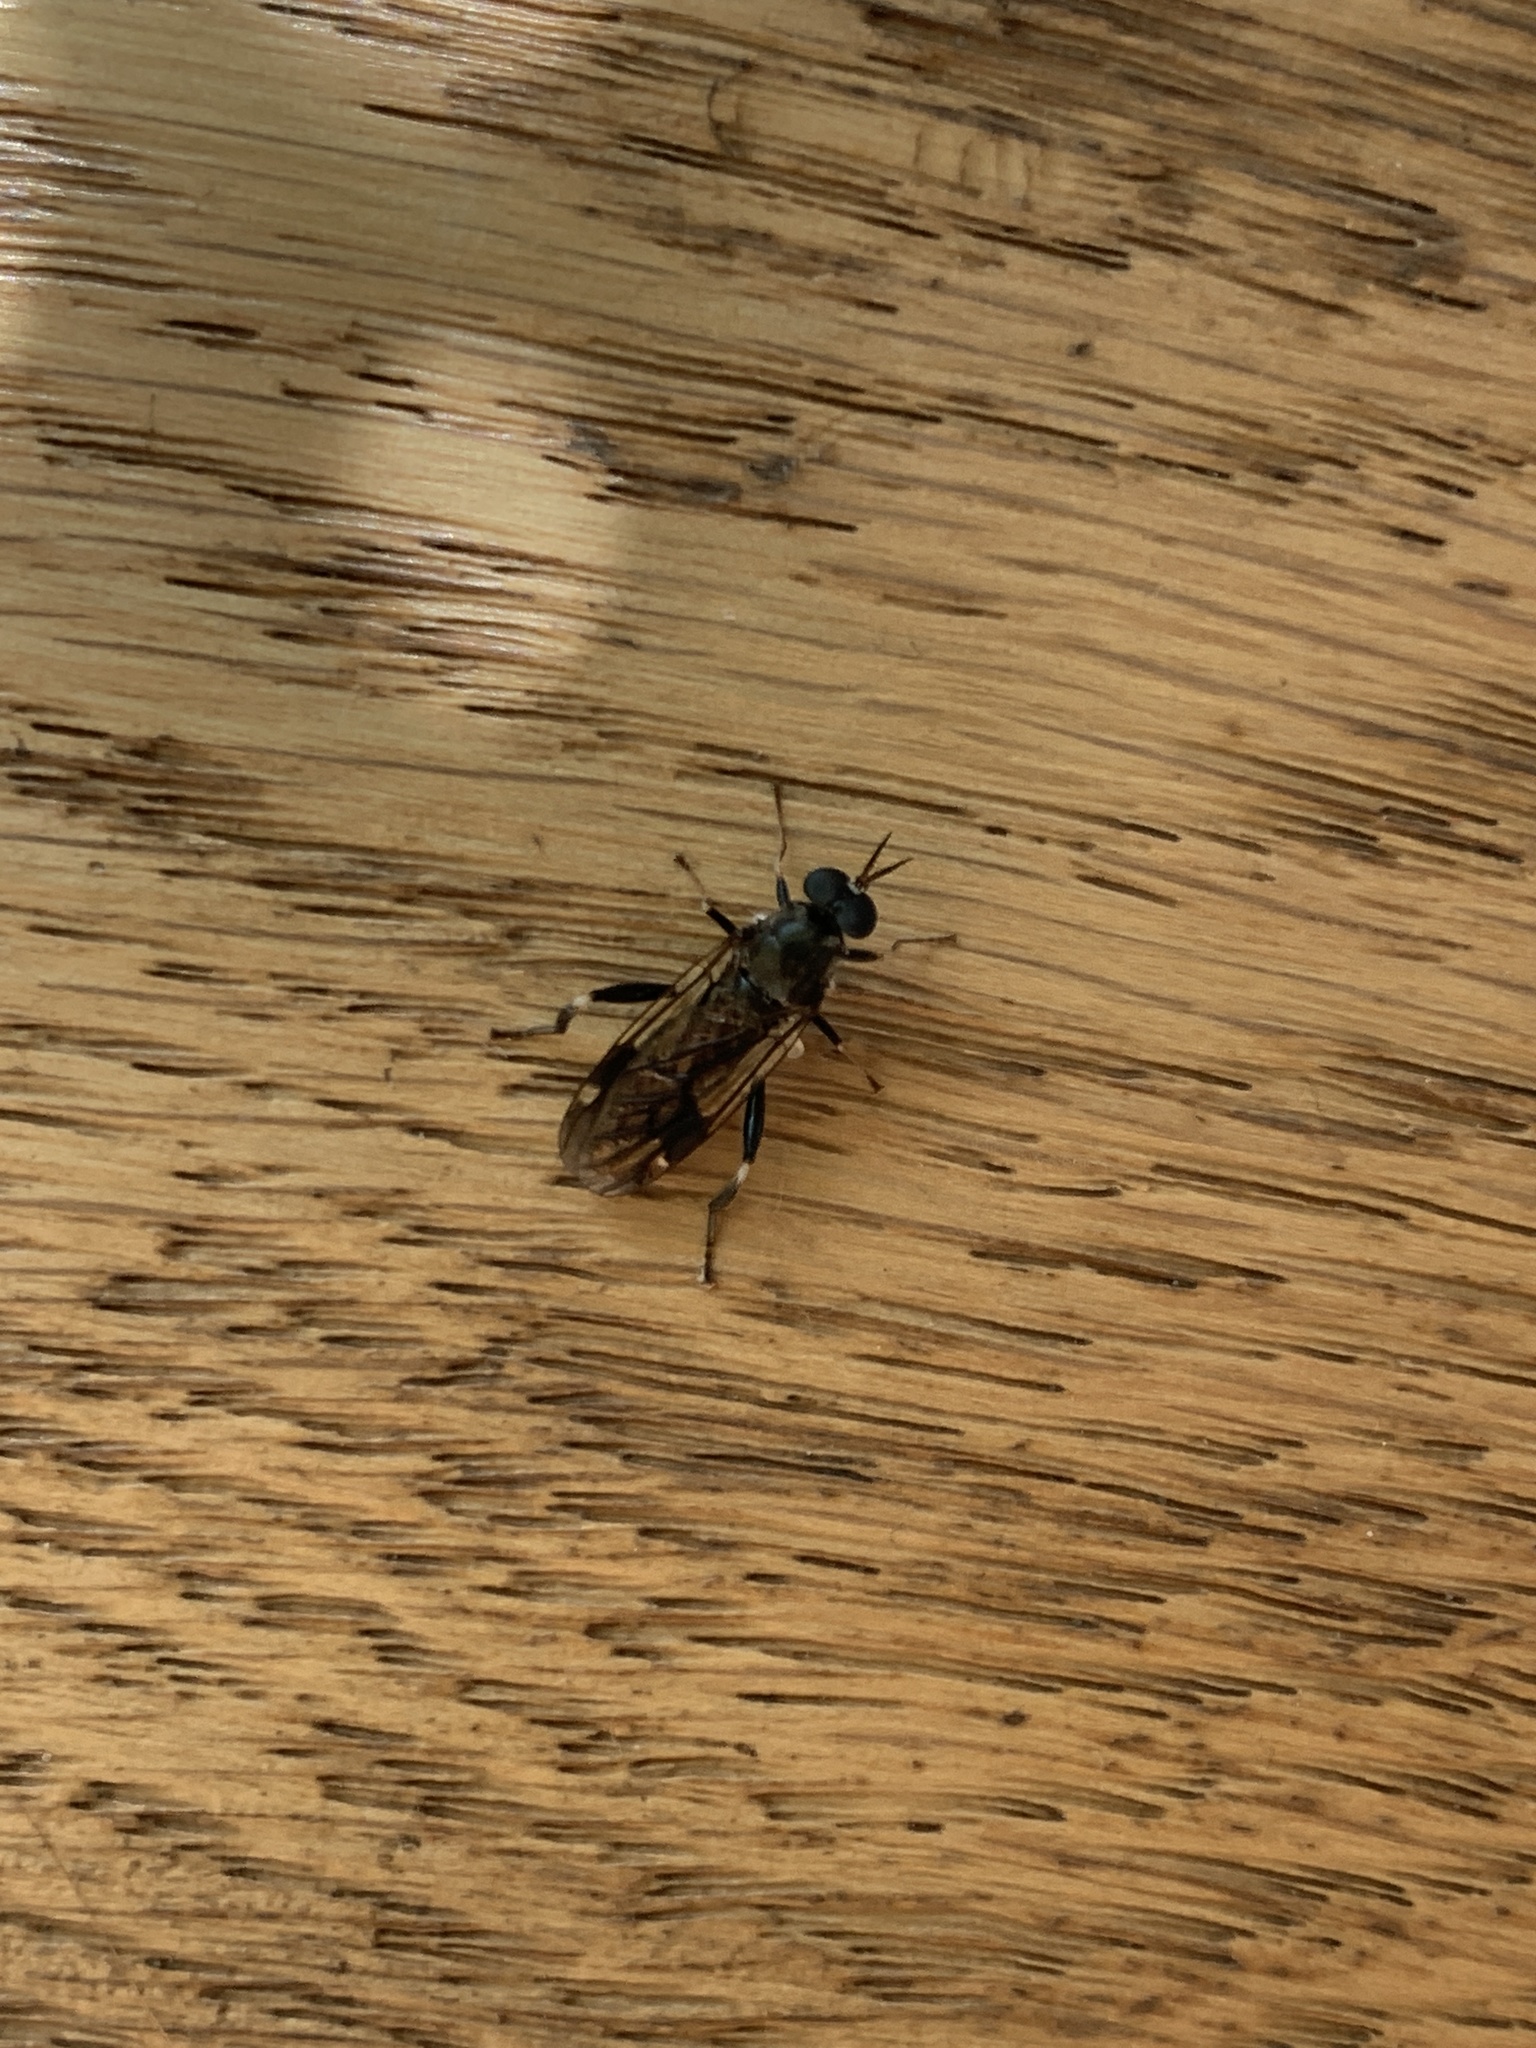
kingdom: Animalia
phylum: Arthropoda
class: Insecta
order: Diptera
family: Stratiomyidae
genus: Exaireta
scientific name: Exaireta spinigera
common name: Blue soldier fly
